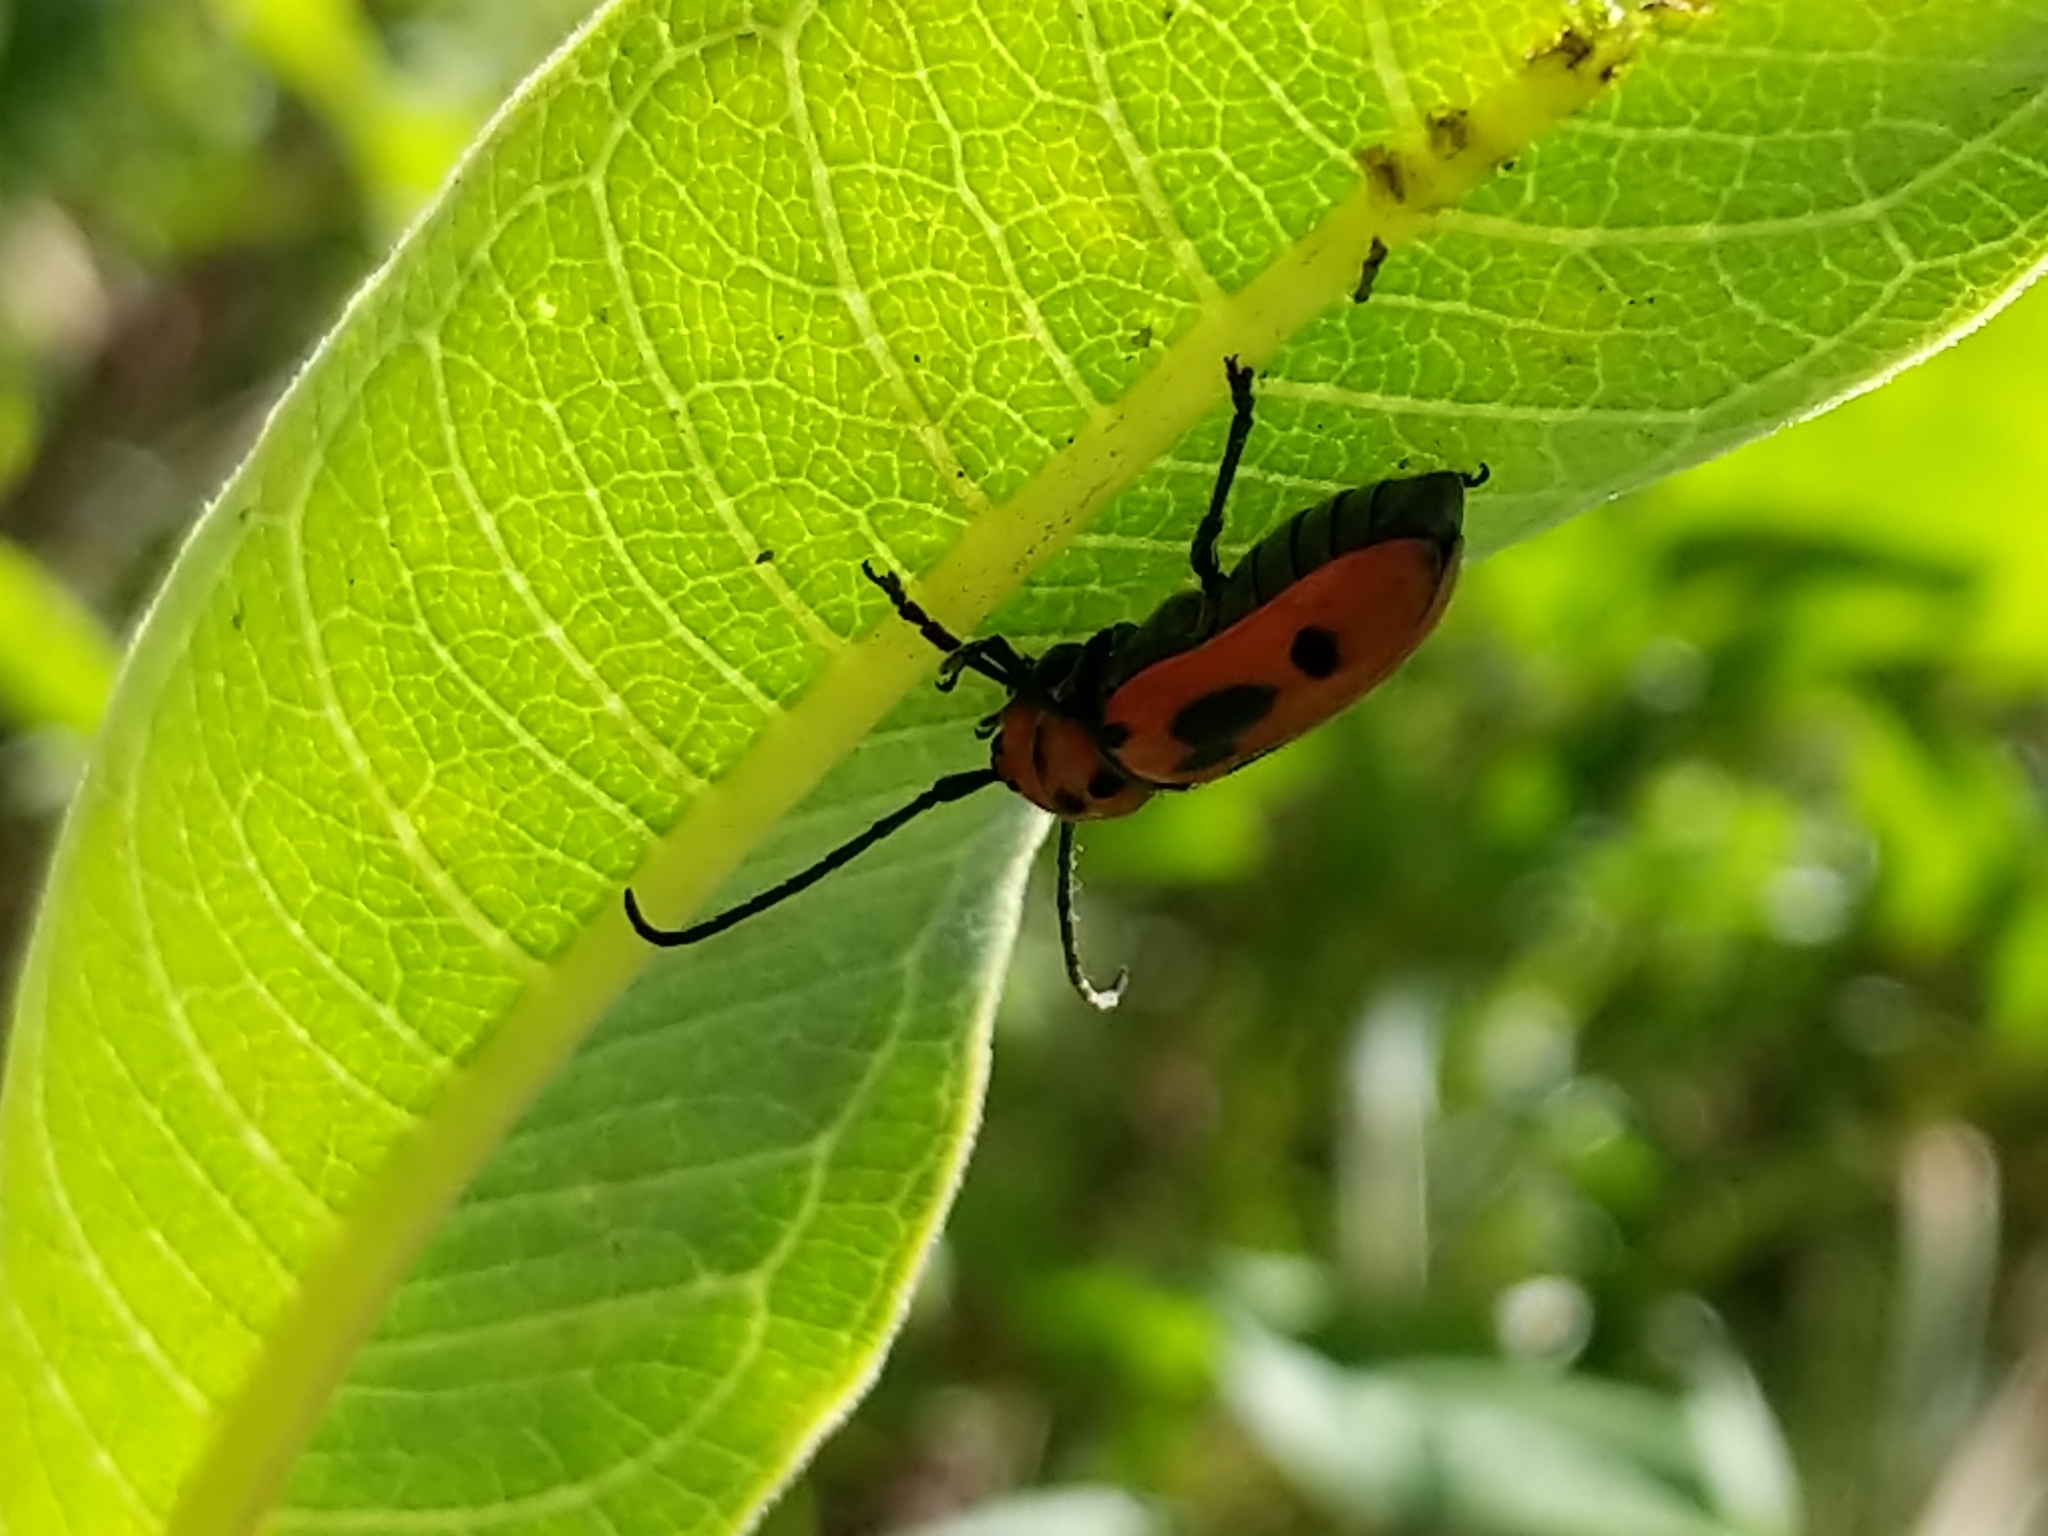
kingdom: Animalia
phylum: Arthropoda
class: Insecta
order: Coleoptera
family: Cerambycidae
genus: Tetraopes
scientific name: Tetraopes tetrophthalmus
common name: Red milkweed beetle
